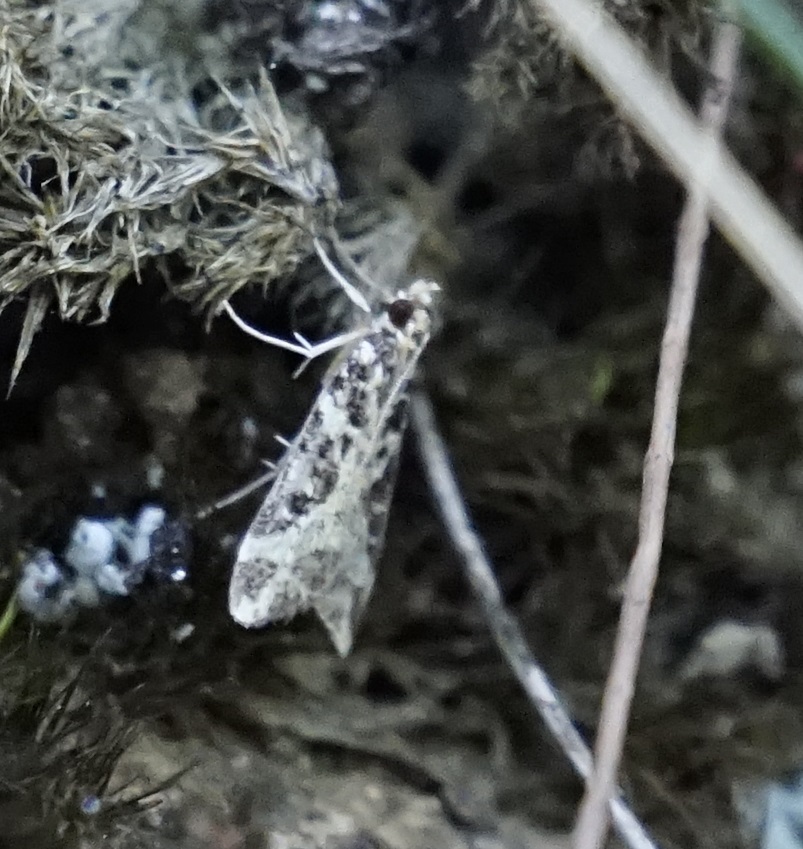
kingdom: Animalia
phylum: Arthropoda
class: Insecta
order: Lepidoptera
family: Crambidae
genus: Scoparia
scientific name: Scoparia melanoxantha
